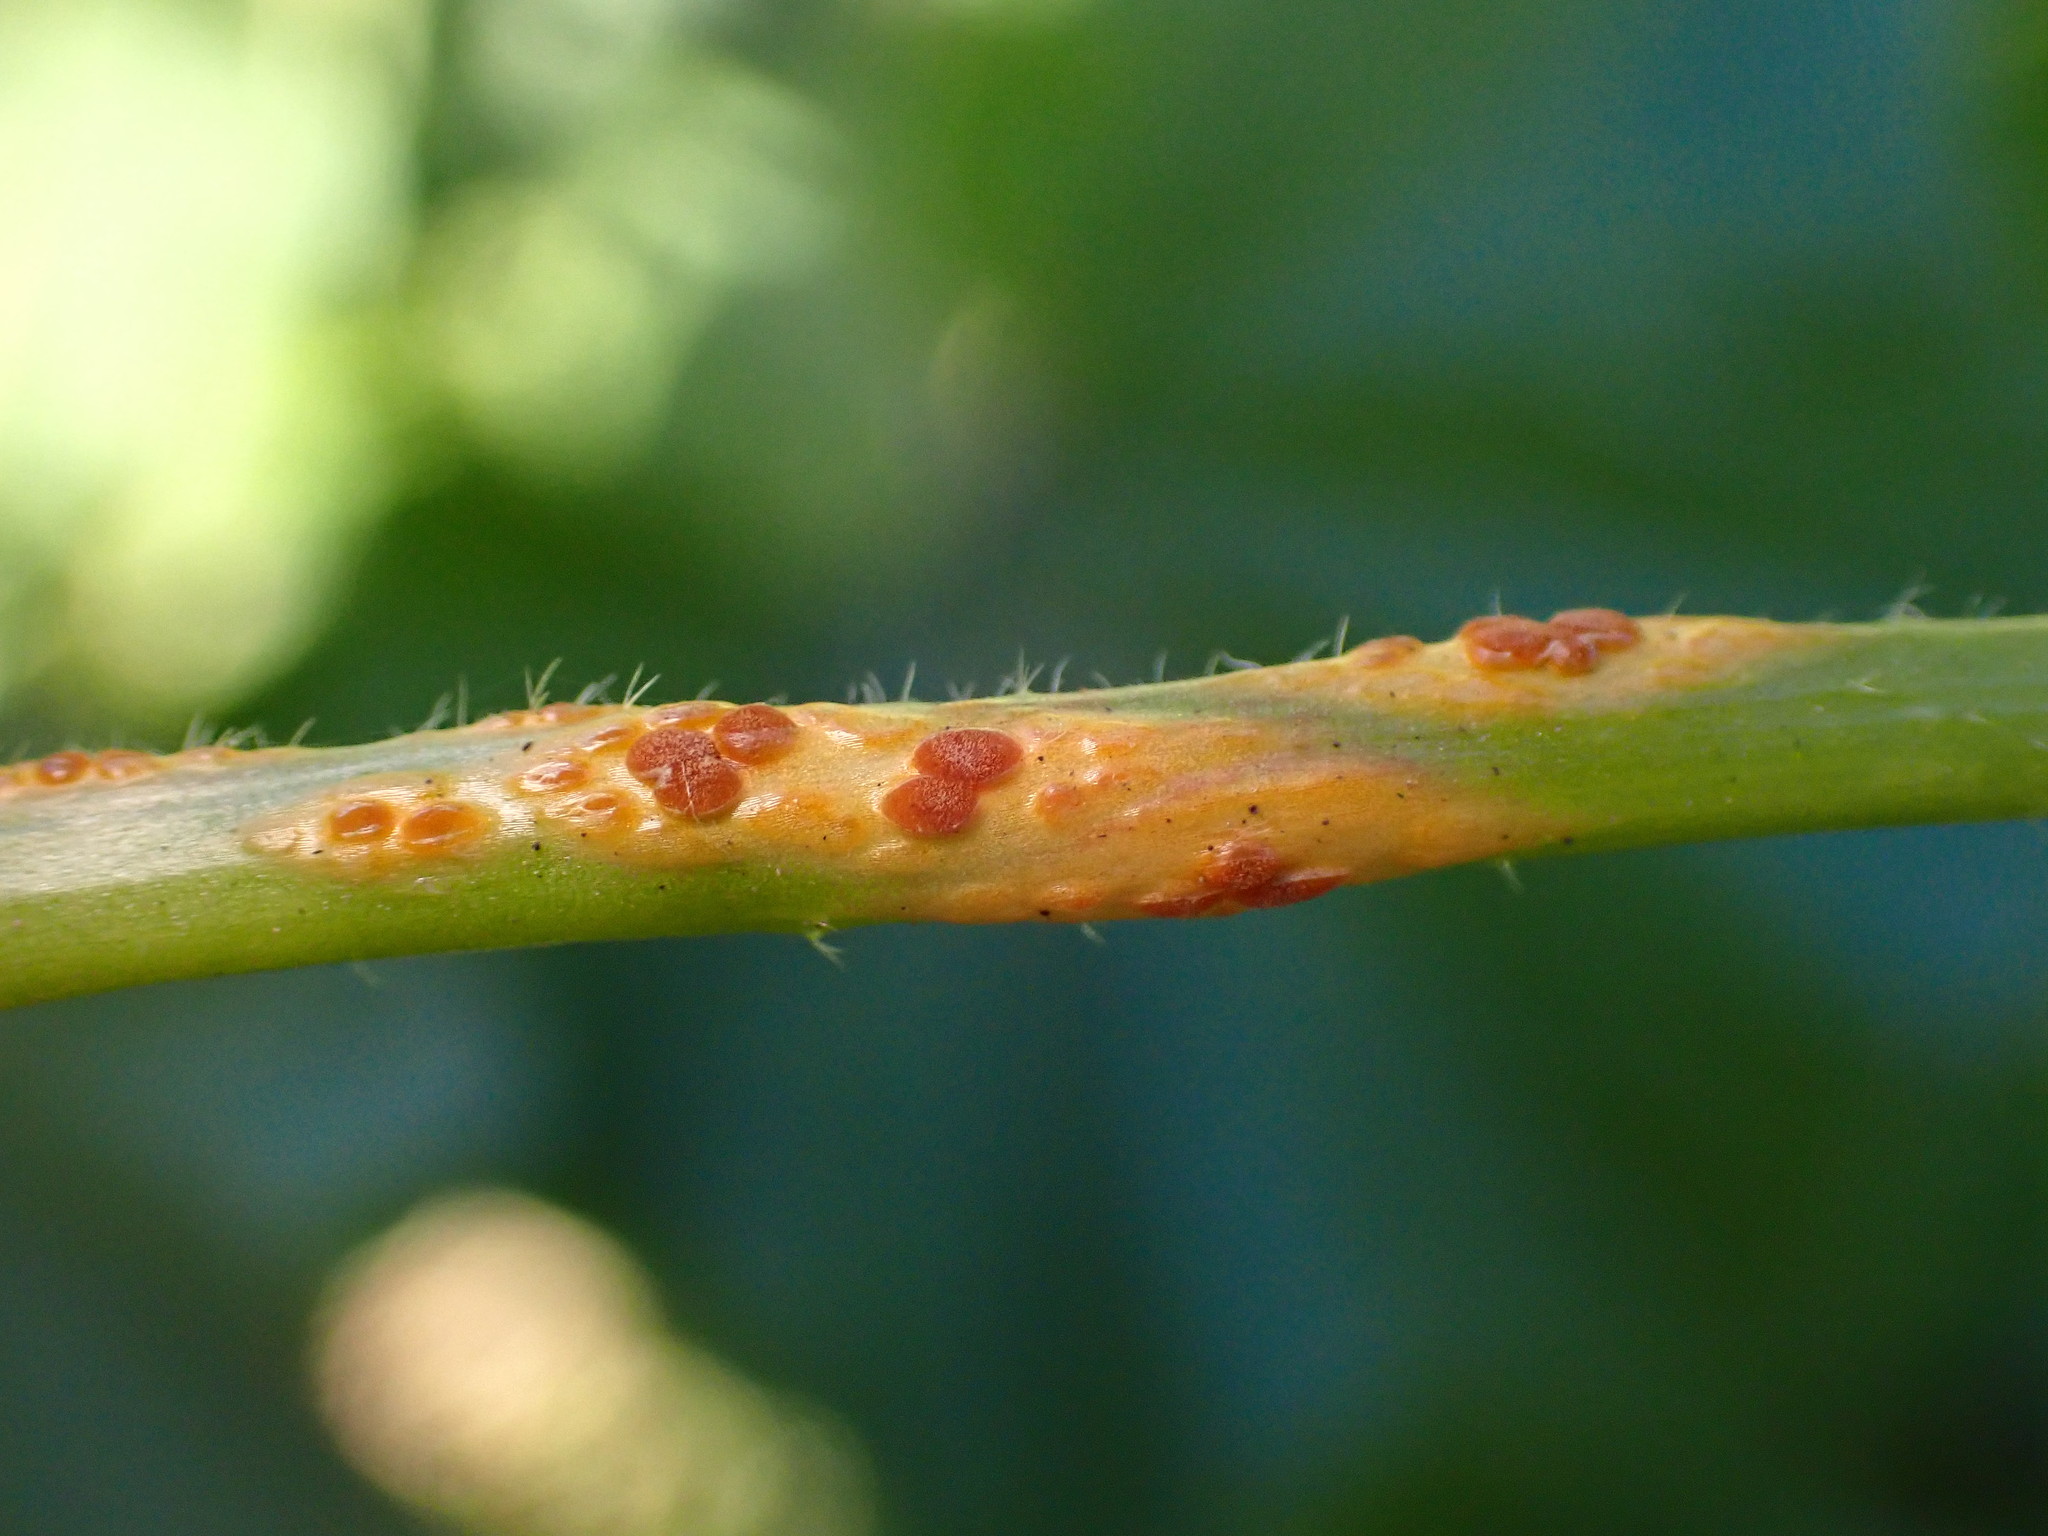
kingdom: Fungi
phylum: Basidiomycota
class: Pucciniomycetes
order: Pucciniales
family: Pucciniaceae
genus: Puccinia
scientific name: Puccinia malvacearum
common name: Hollyhock rust
